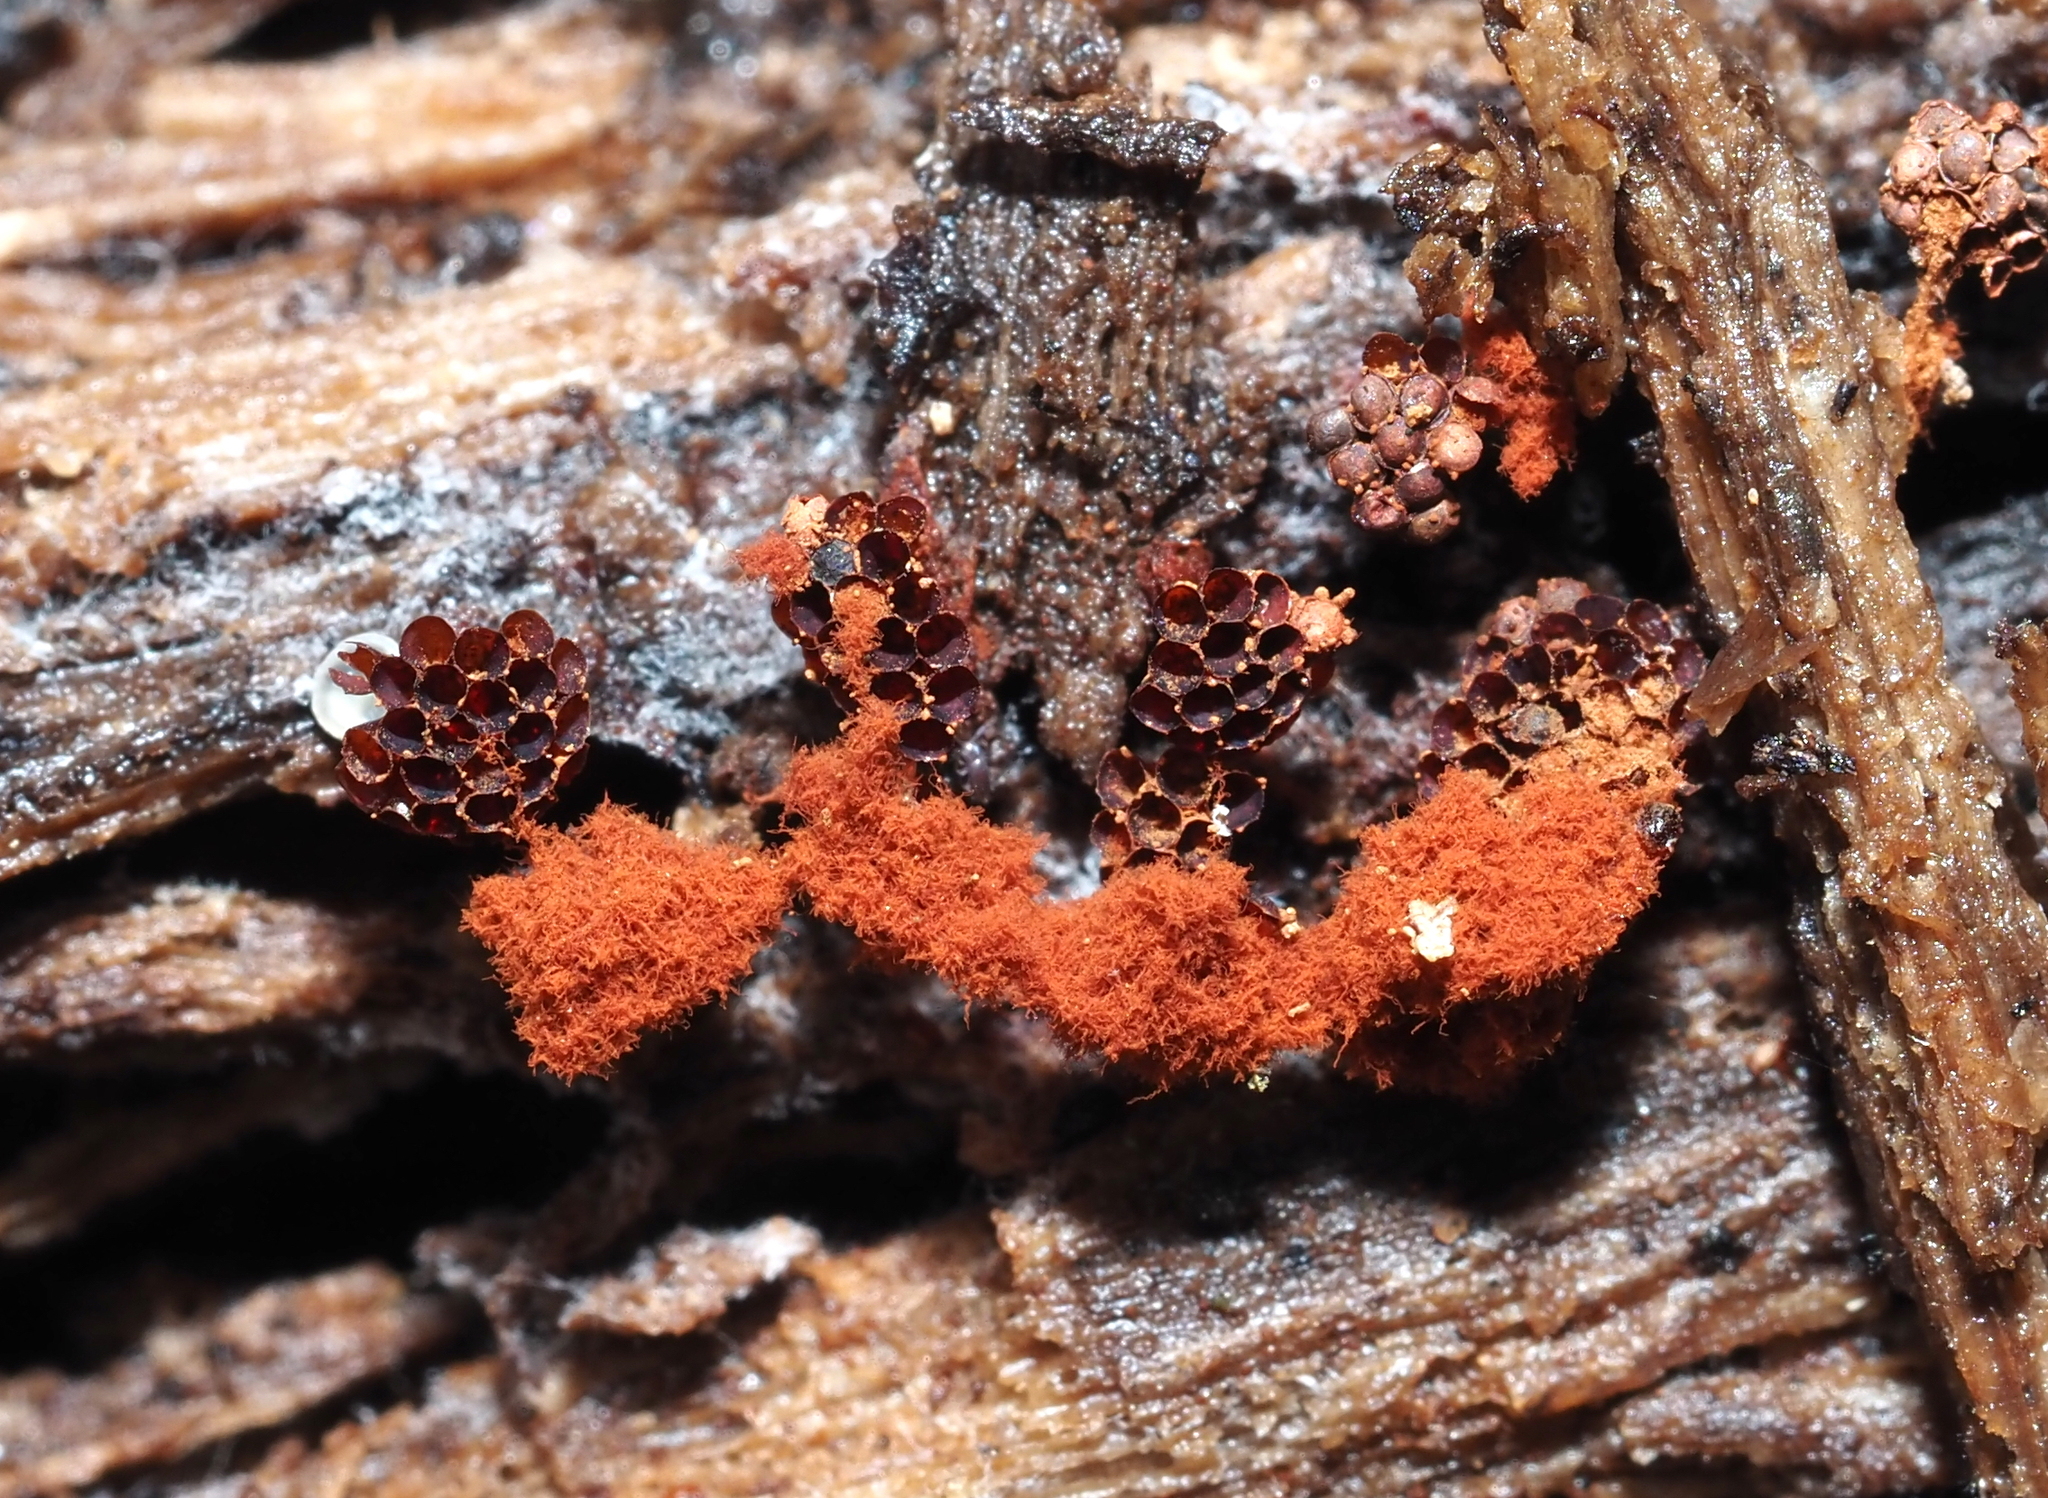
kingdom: Protozoa
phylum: Mycetozoa
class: Myxomycetes
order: Trichiales
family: Trichiaceae
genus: Metatrichia
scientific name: Metatrichia vesparia
